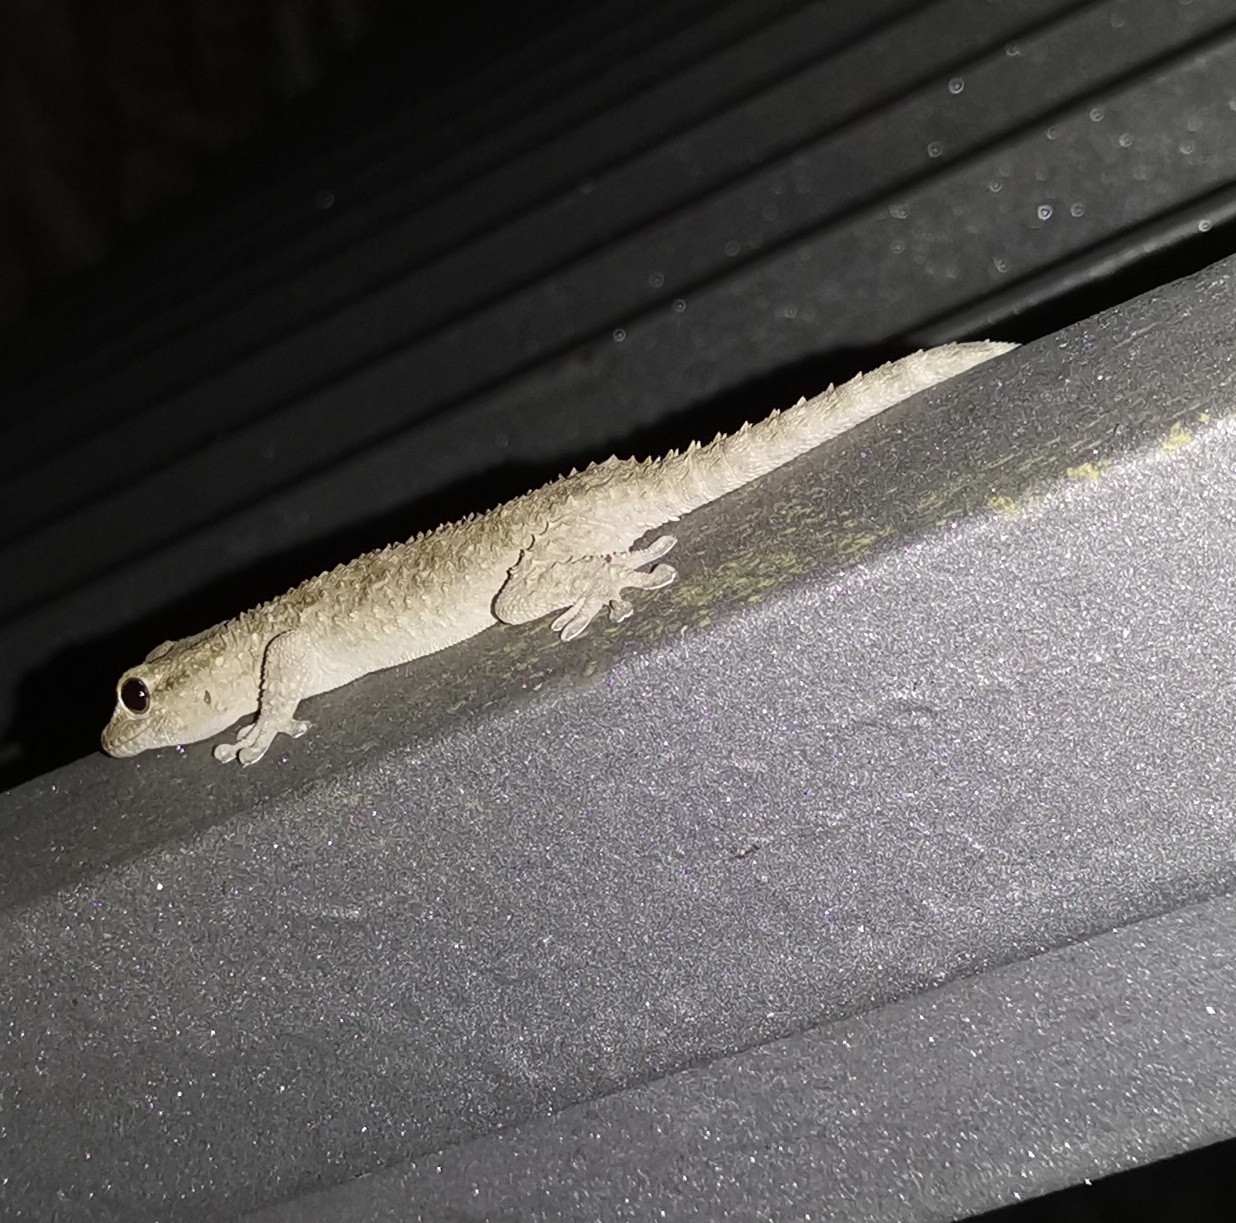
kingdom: Animalia
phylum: Chordata
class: Squamata
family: Phyllodactylidae
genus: Tarentola
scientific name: Tarentola mauritanica
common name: Moorish gecko
